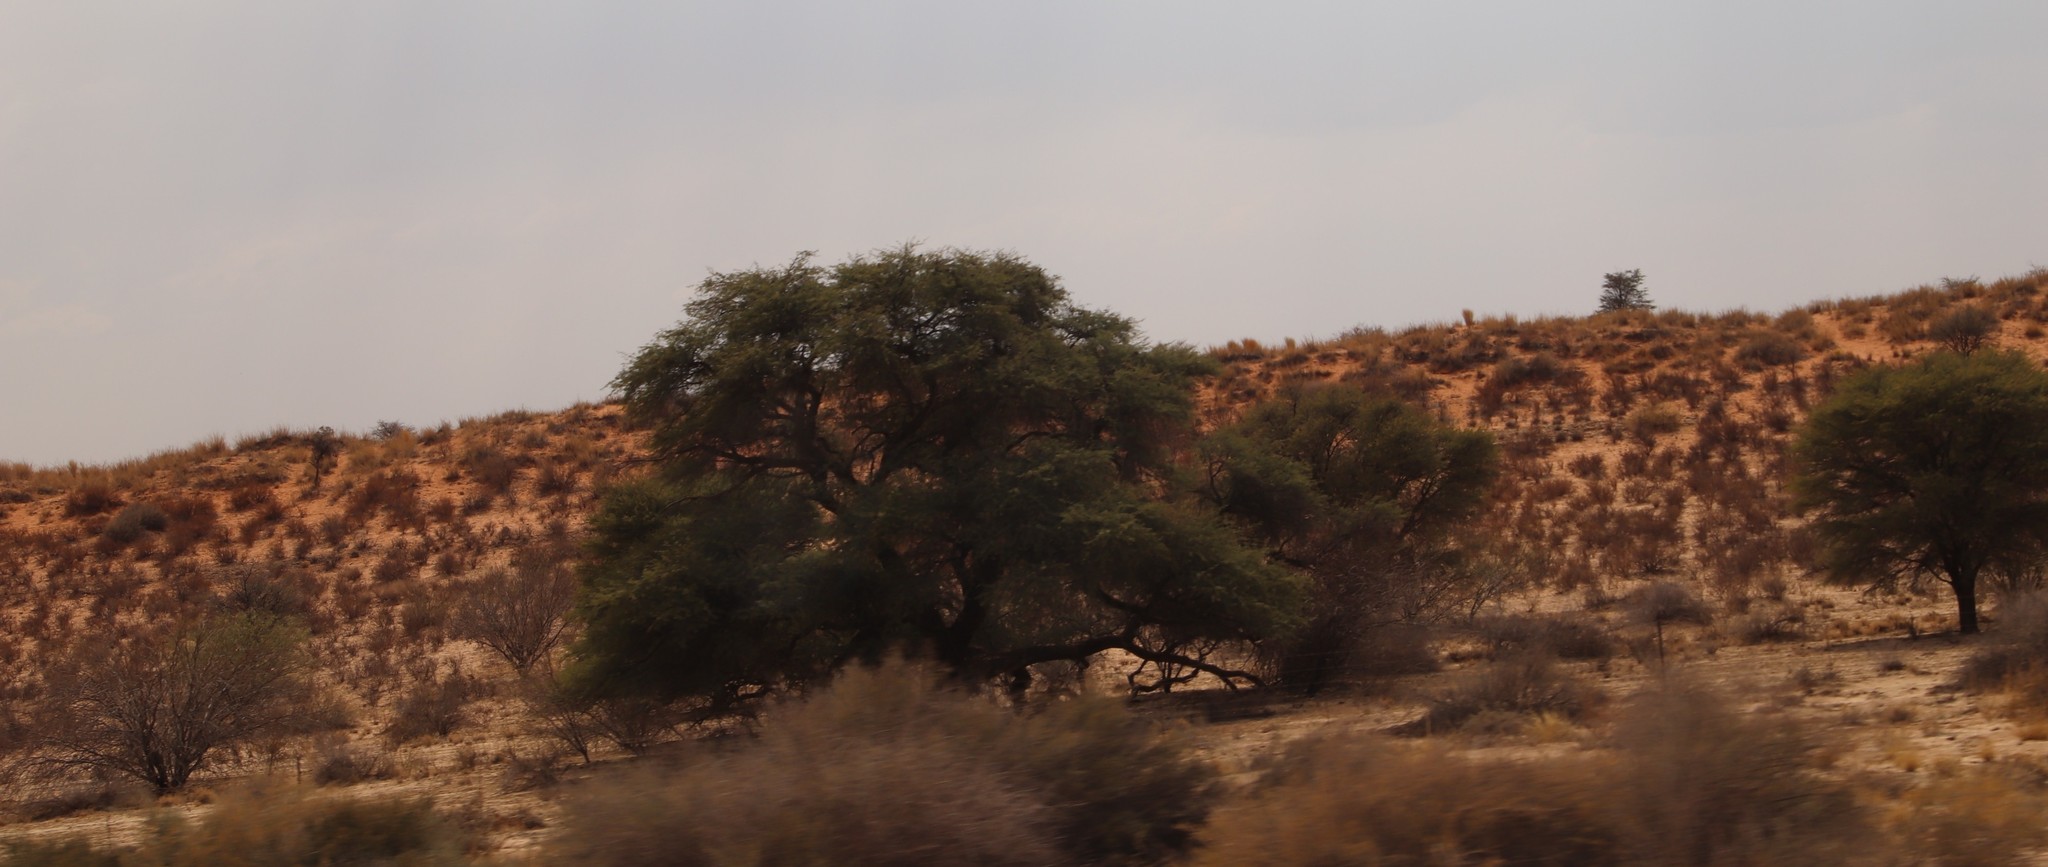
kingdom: Plantae
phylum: Tracheophyta
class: Magnoliopsida
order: Fabales
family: Fabaceae
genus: Vachellia
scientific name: Vachellia erioloba
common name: Camel thorn
